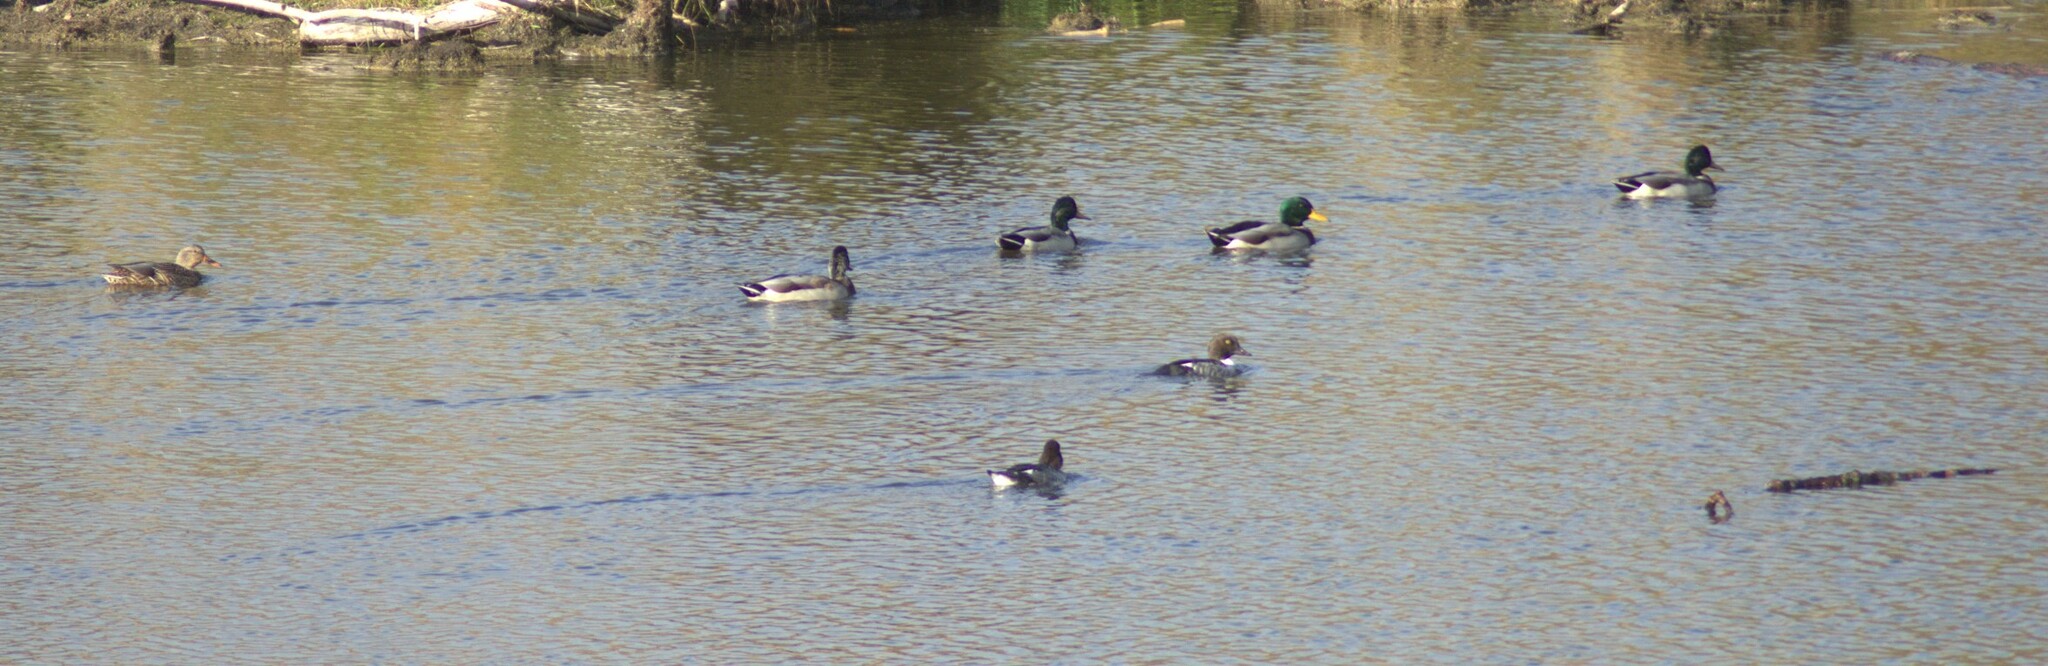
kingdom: Animalia
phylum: Chordata
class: Aves
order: Anseriformes
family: Anatidae
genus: Anas
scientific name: Anas platyrhynchos
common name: Mallard
